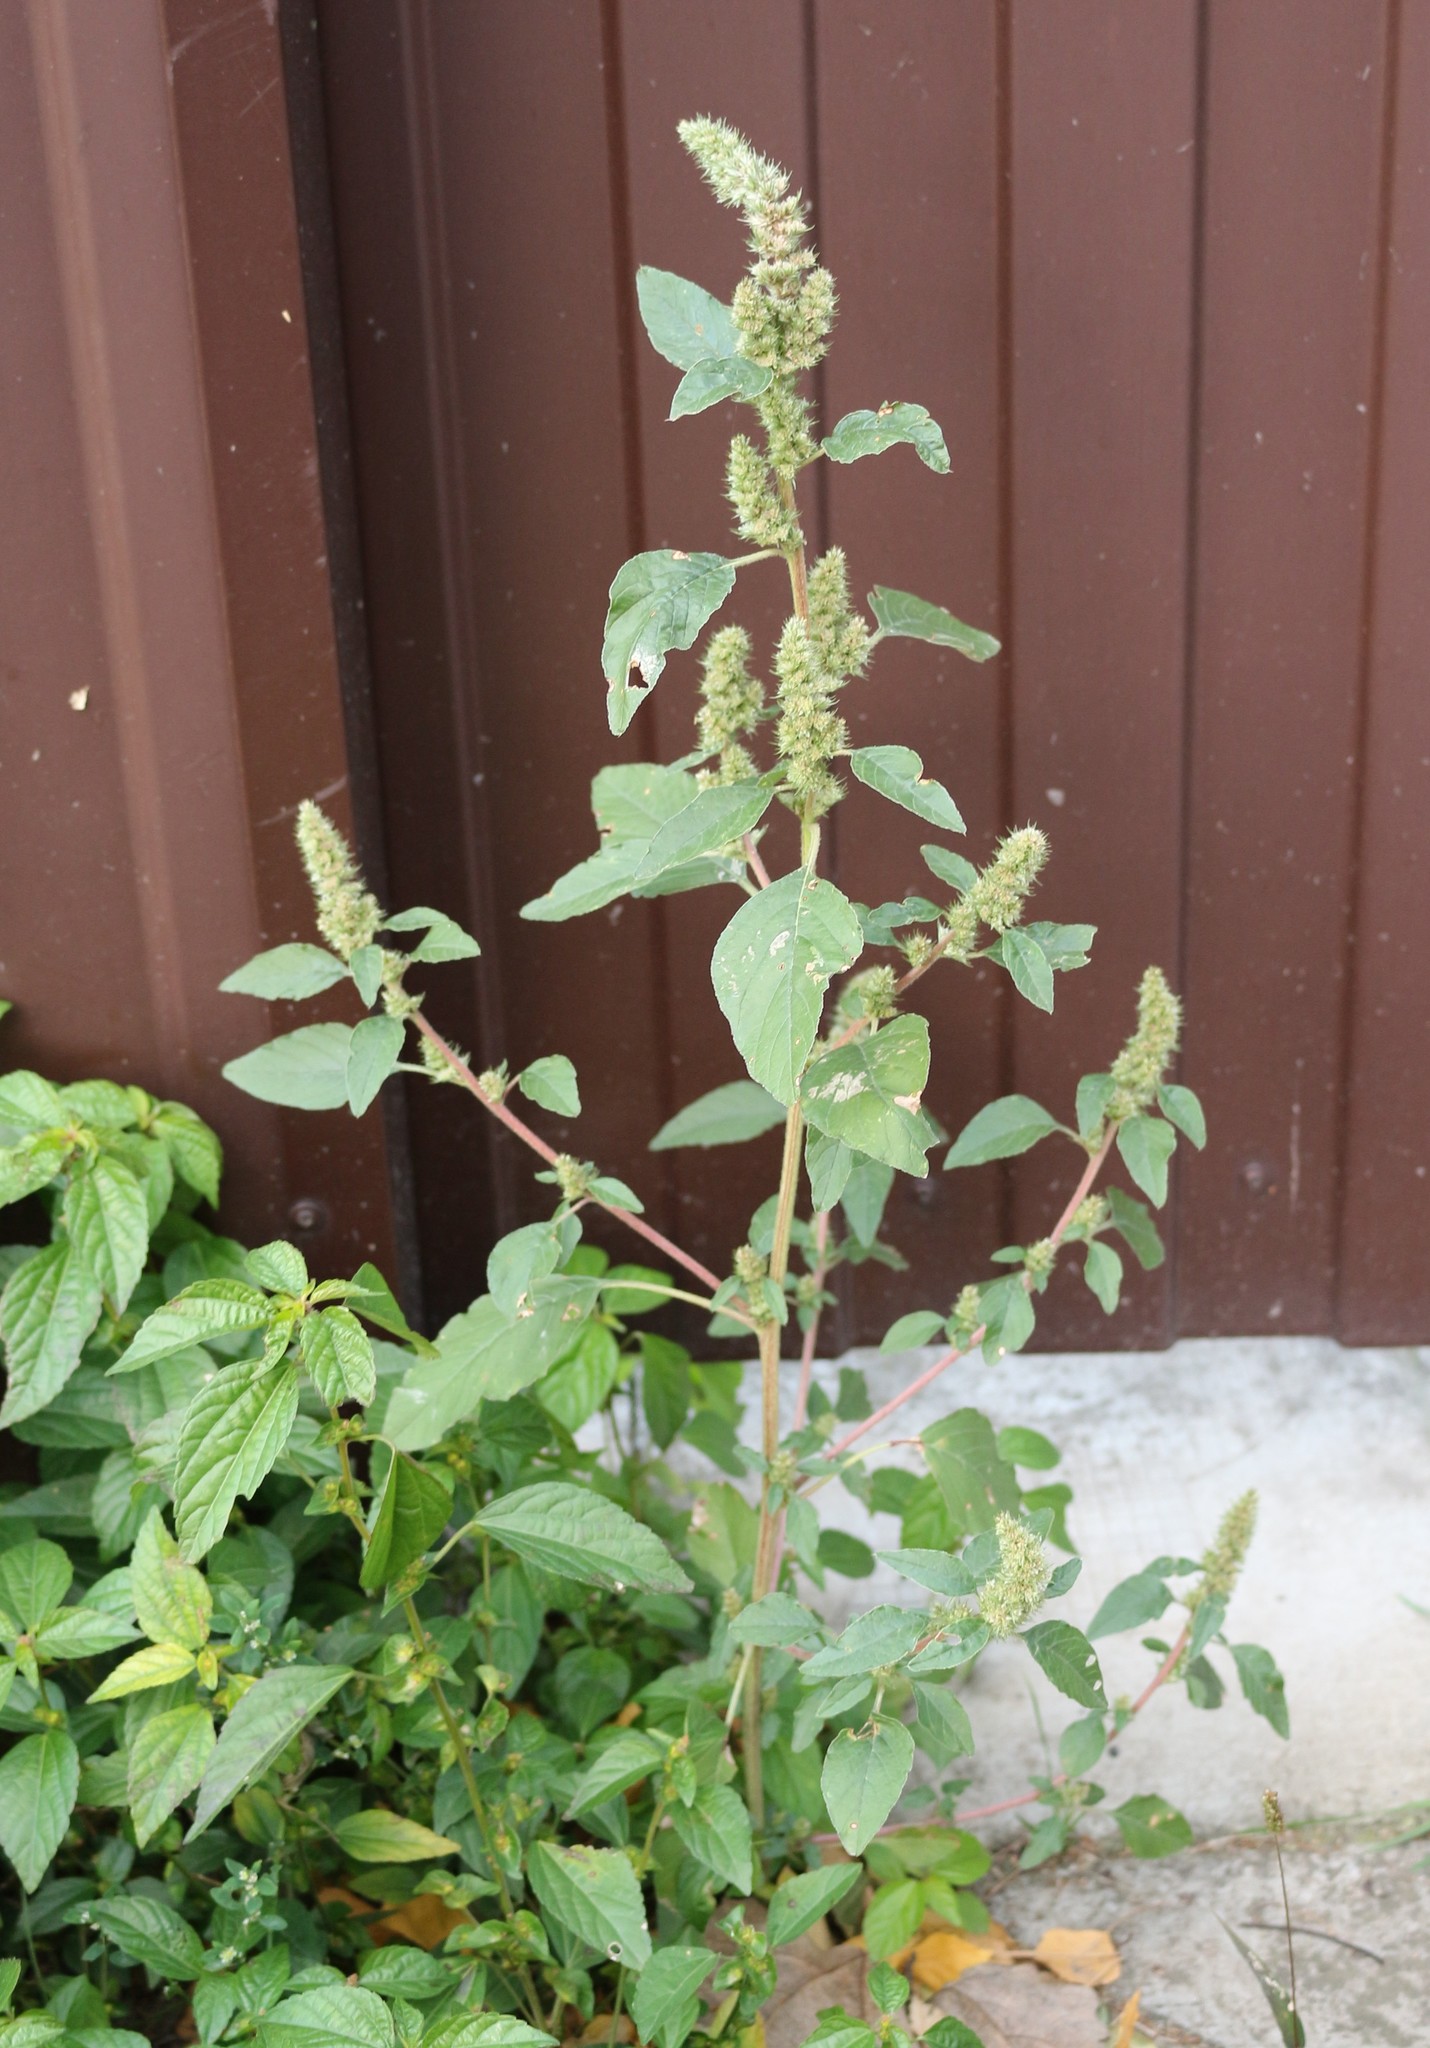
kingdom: Plantae
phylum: Tracheophyta
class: Magnoliopsida
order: Caryophyllales
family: Amaranthaceae
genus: Amaranthus
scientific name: Amaranthus retroflexus
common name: Redroot amaranth
